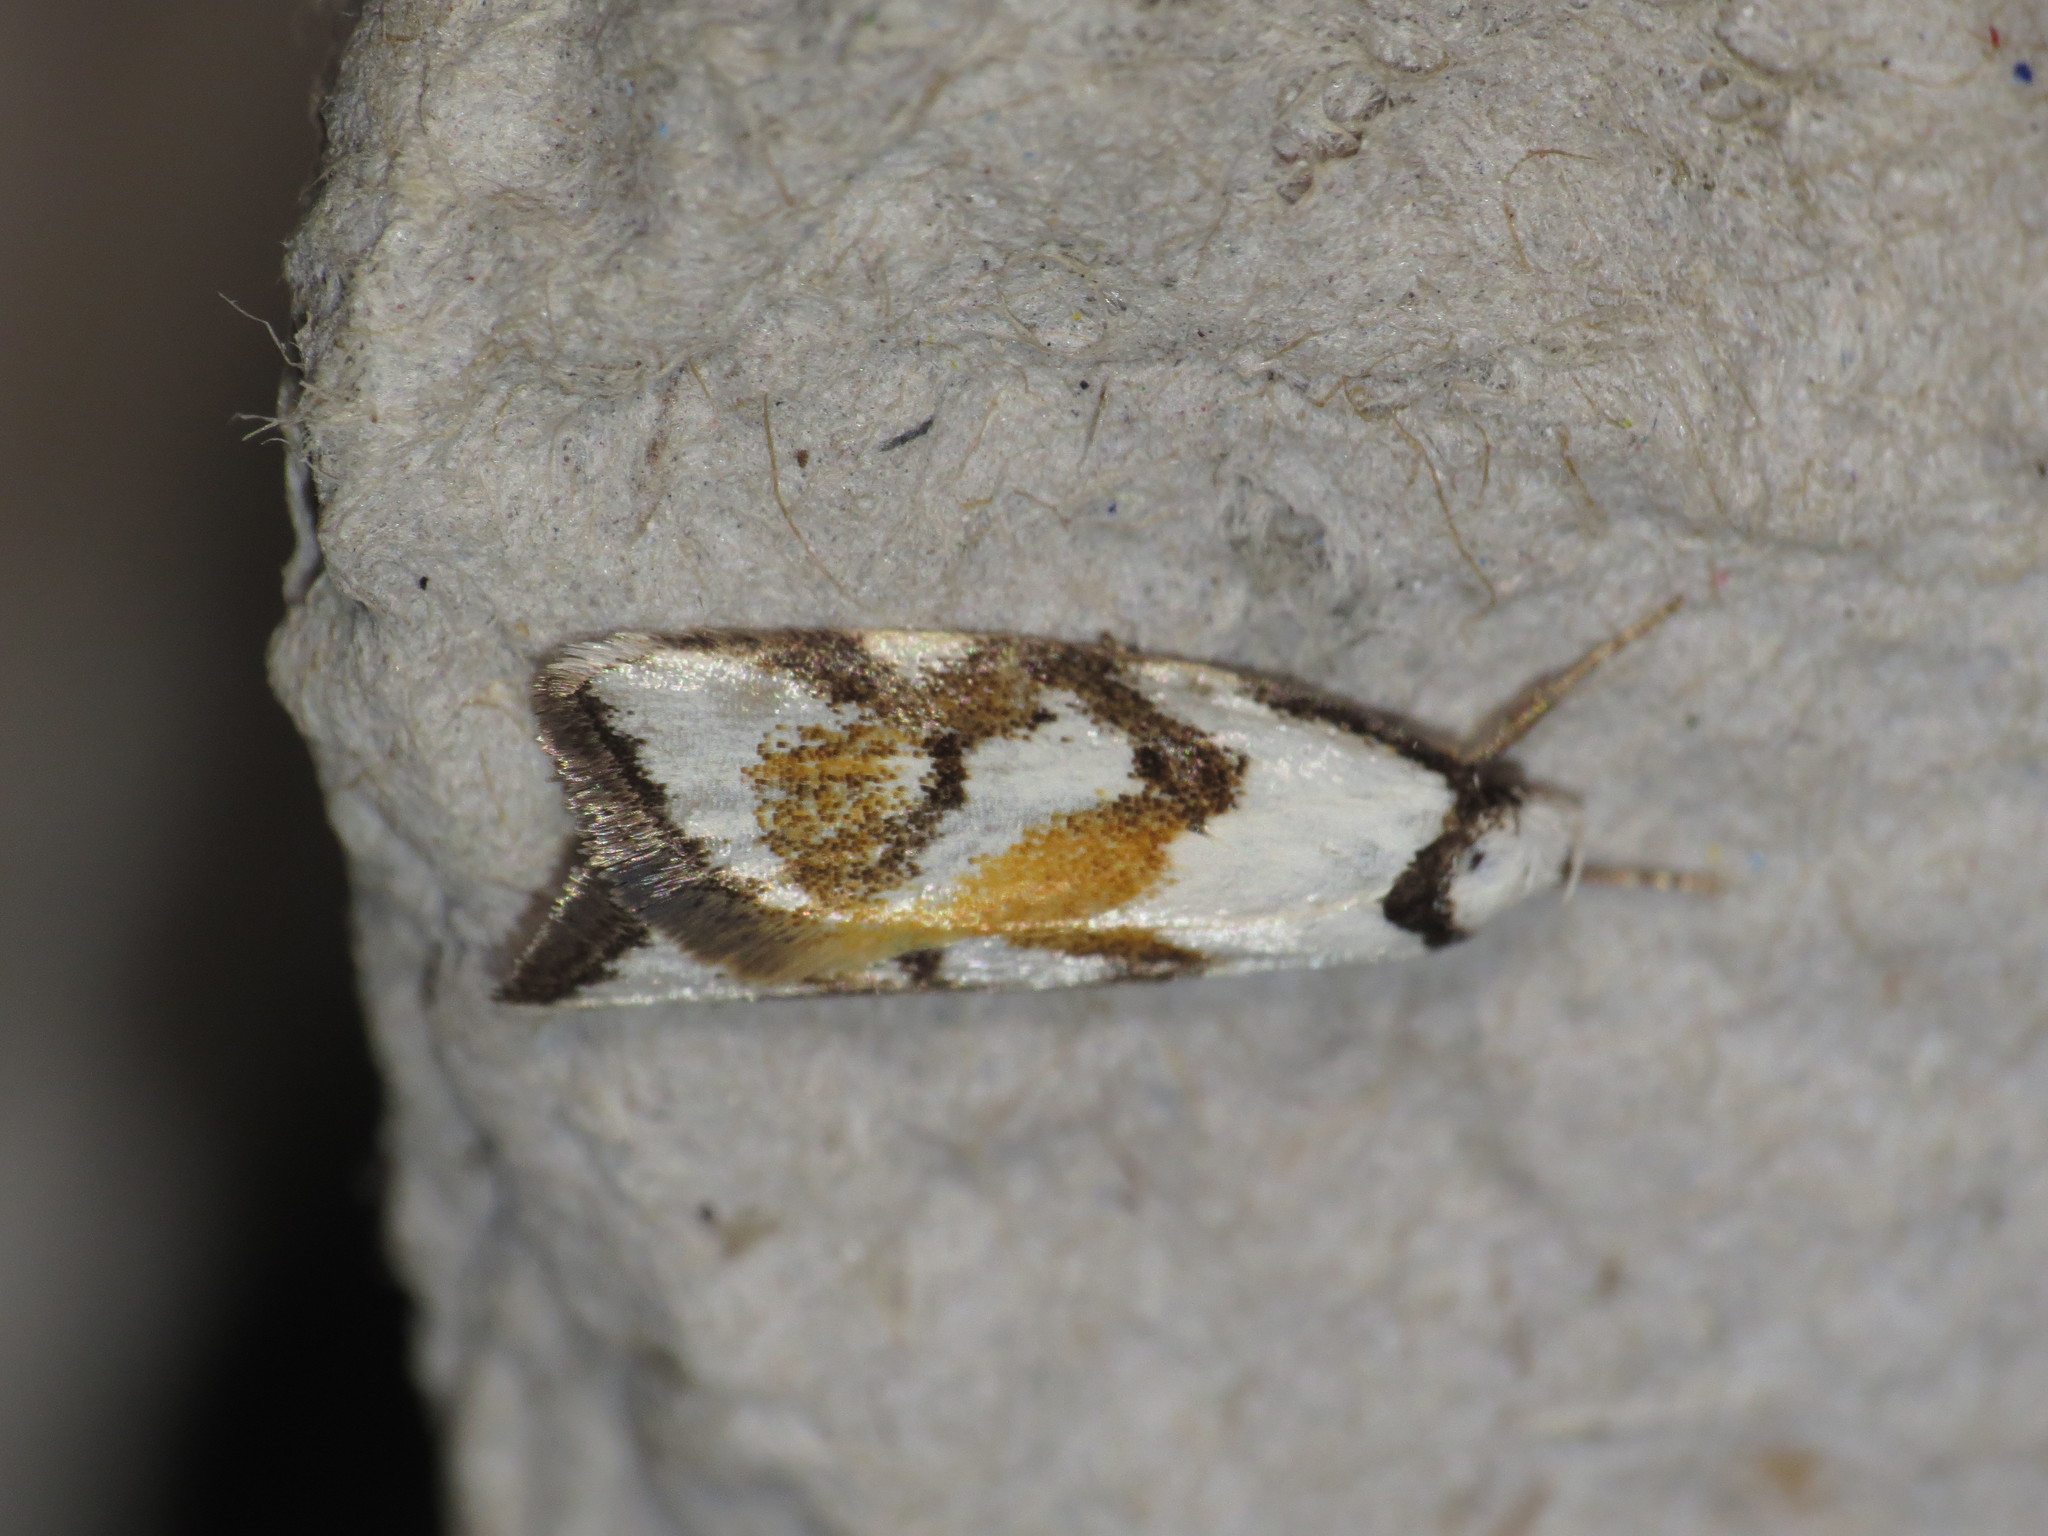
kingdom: Animalia
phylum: Arthropoda
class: Insecta
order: Lepidoptera
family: Oecophoridae
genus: Cosmaresta
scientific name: Cosmaresta anarrecta
